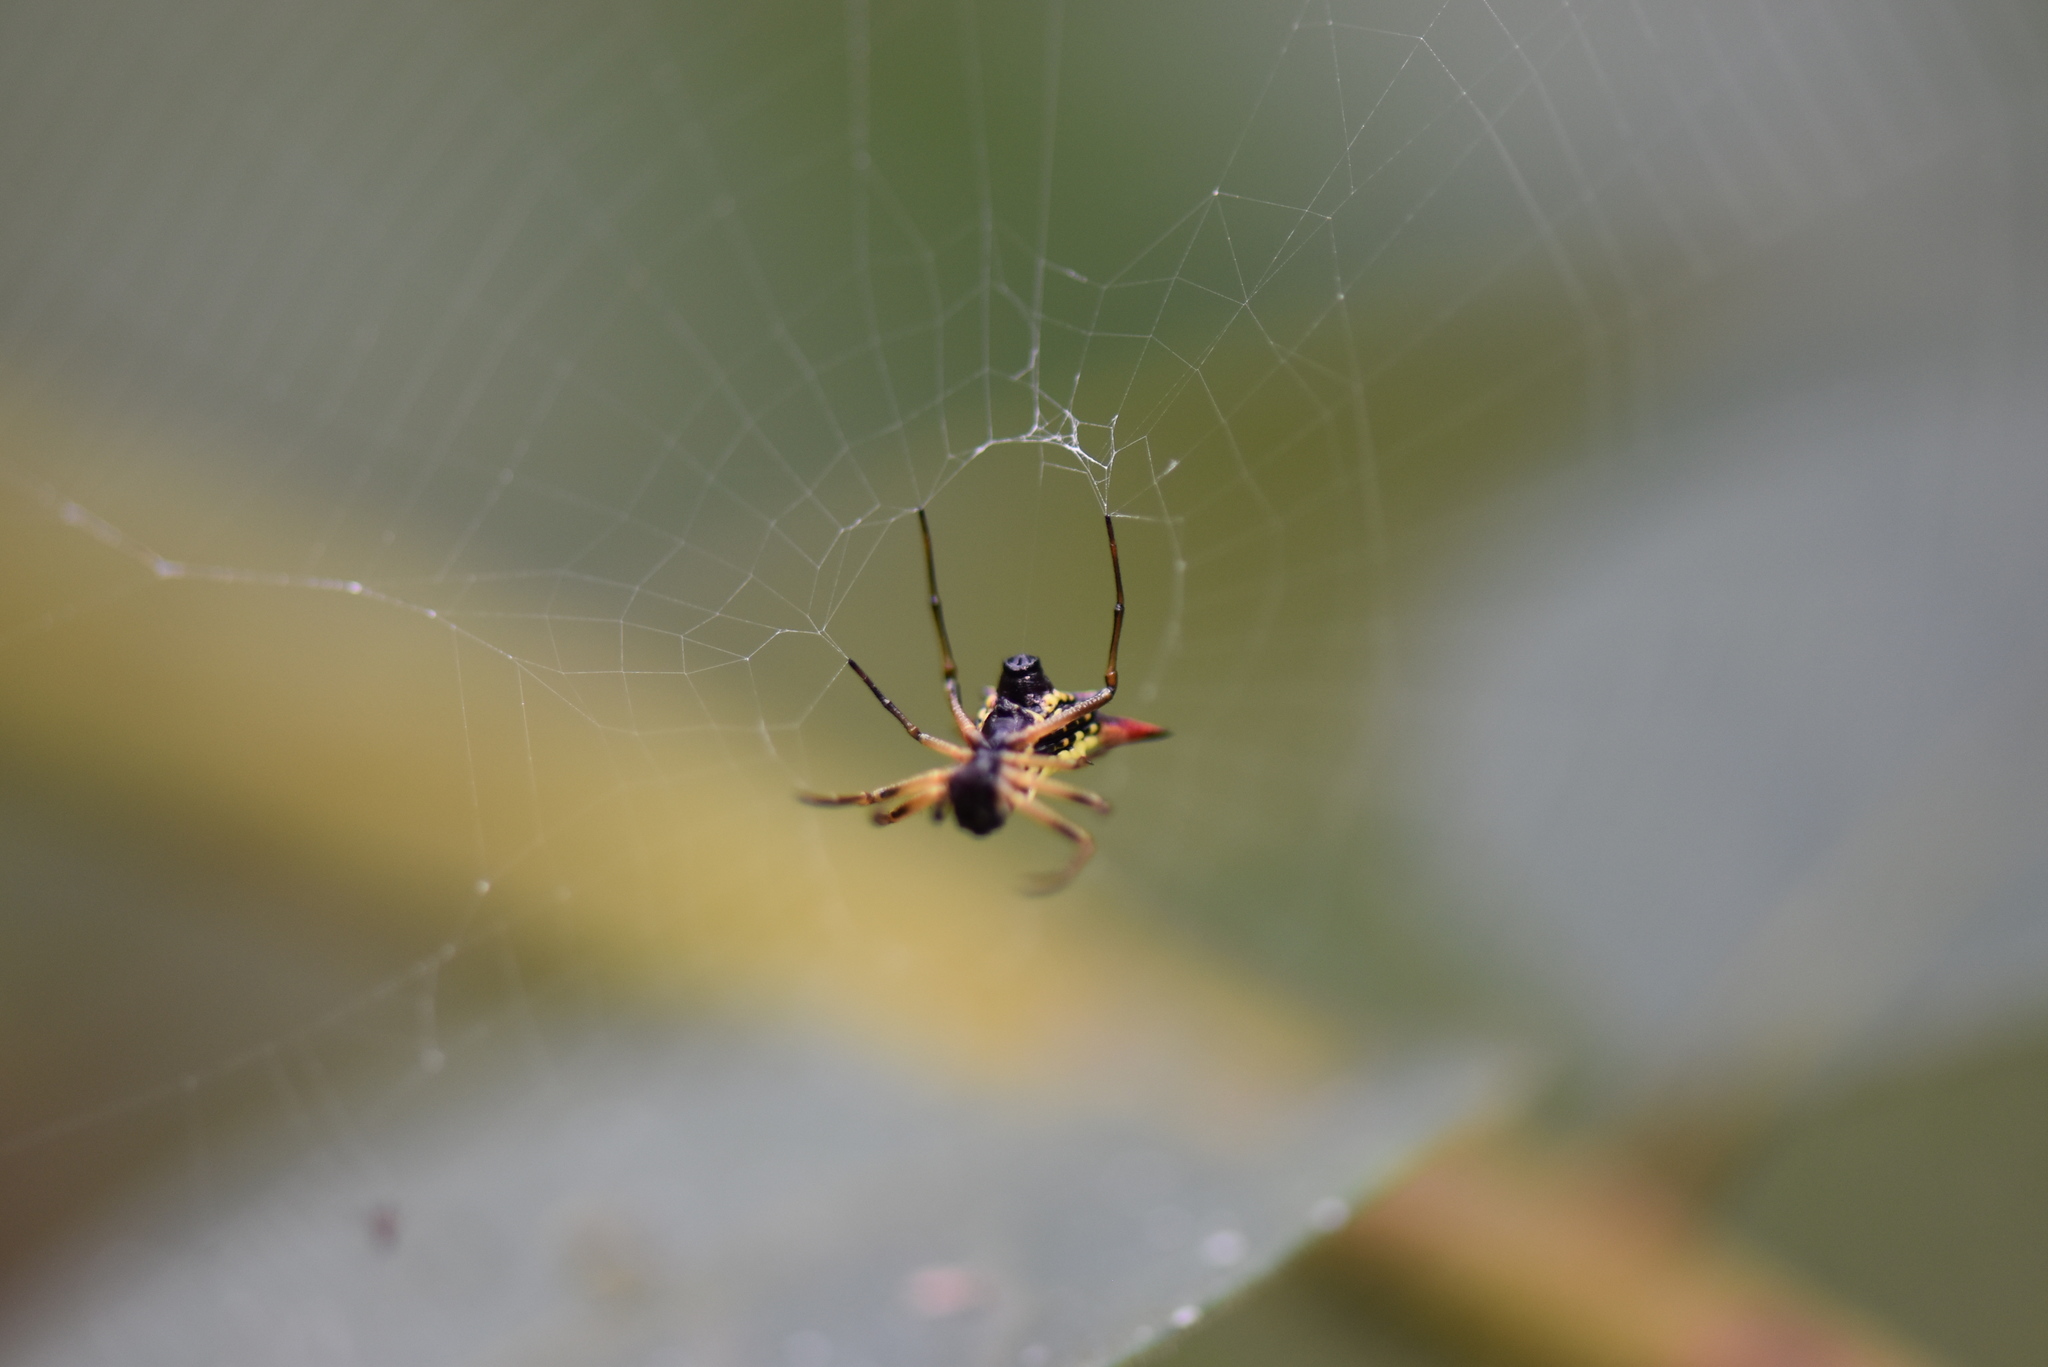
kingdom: Animalia
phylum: Arthropoda
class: Arachnida
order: Araneae
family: Araneidae
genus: Micrathena
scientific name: Micrathena flaveola
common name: Orb weavers
